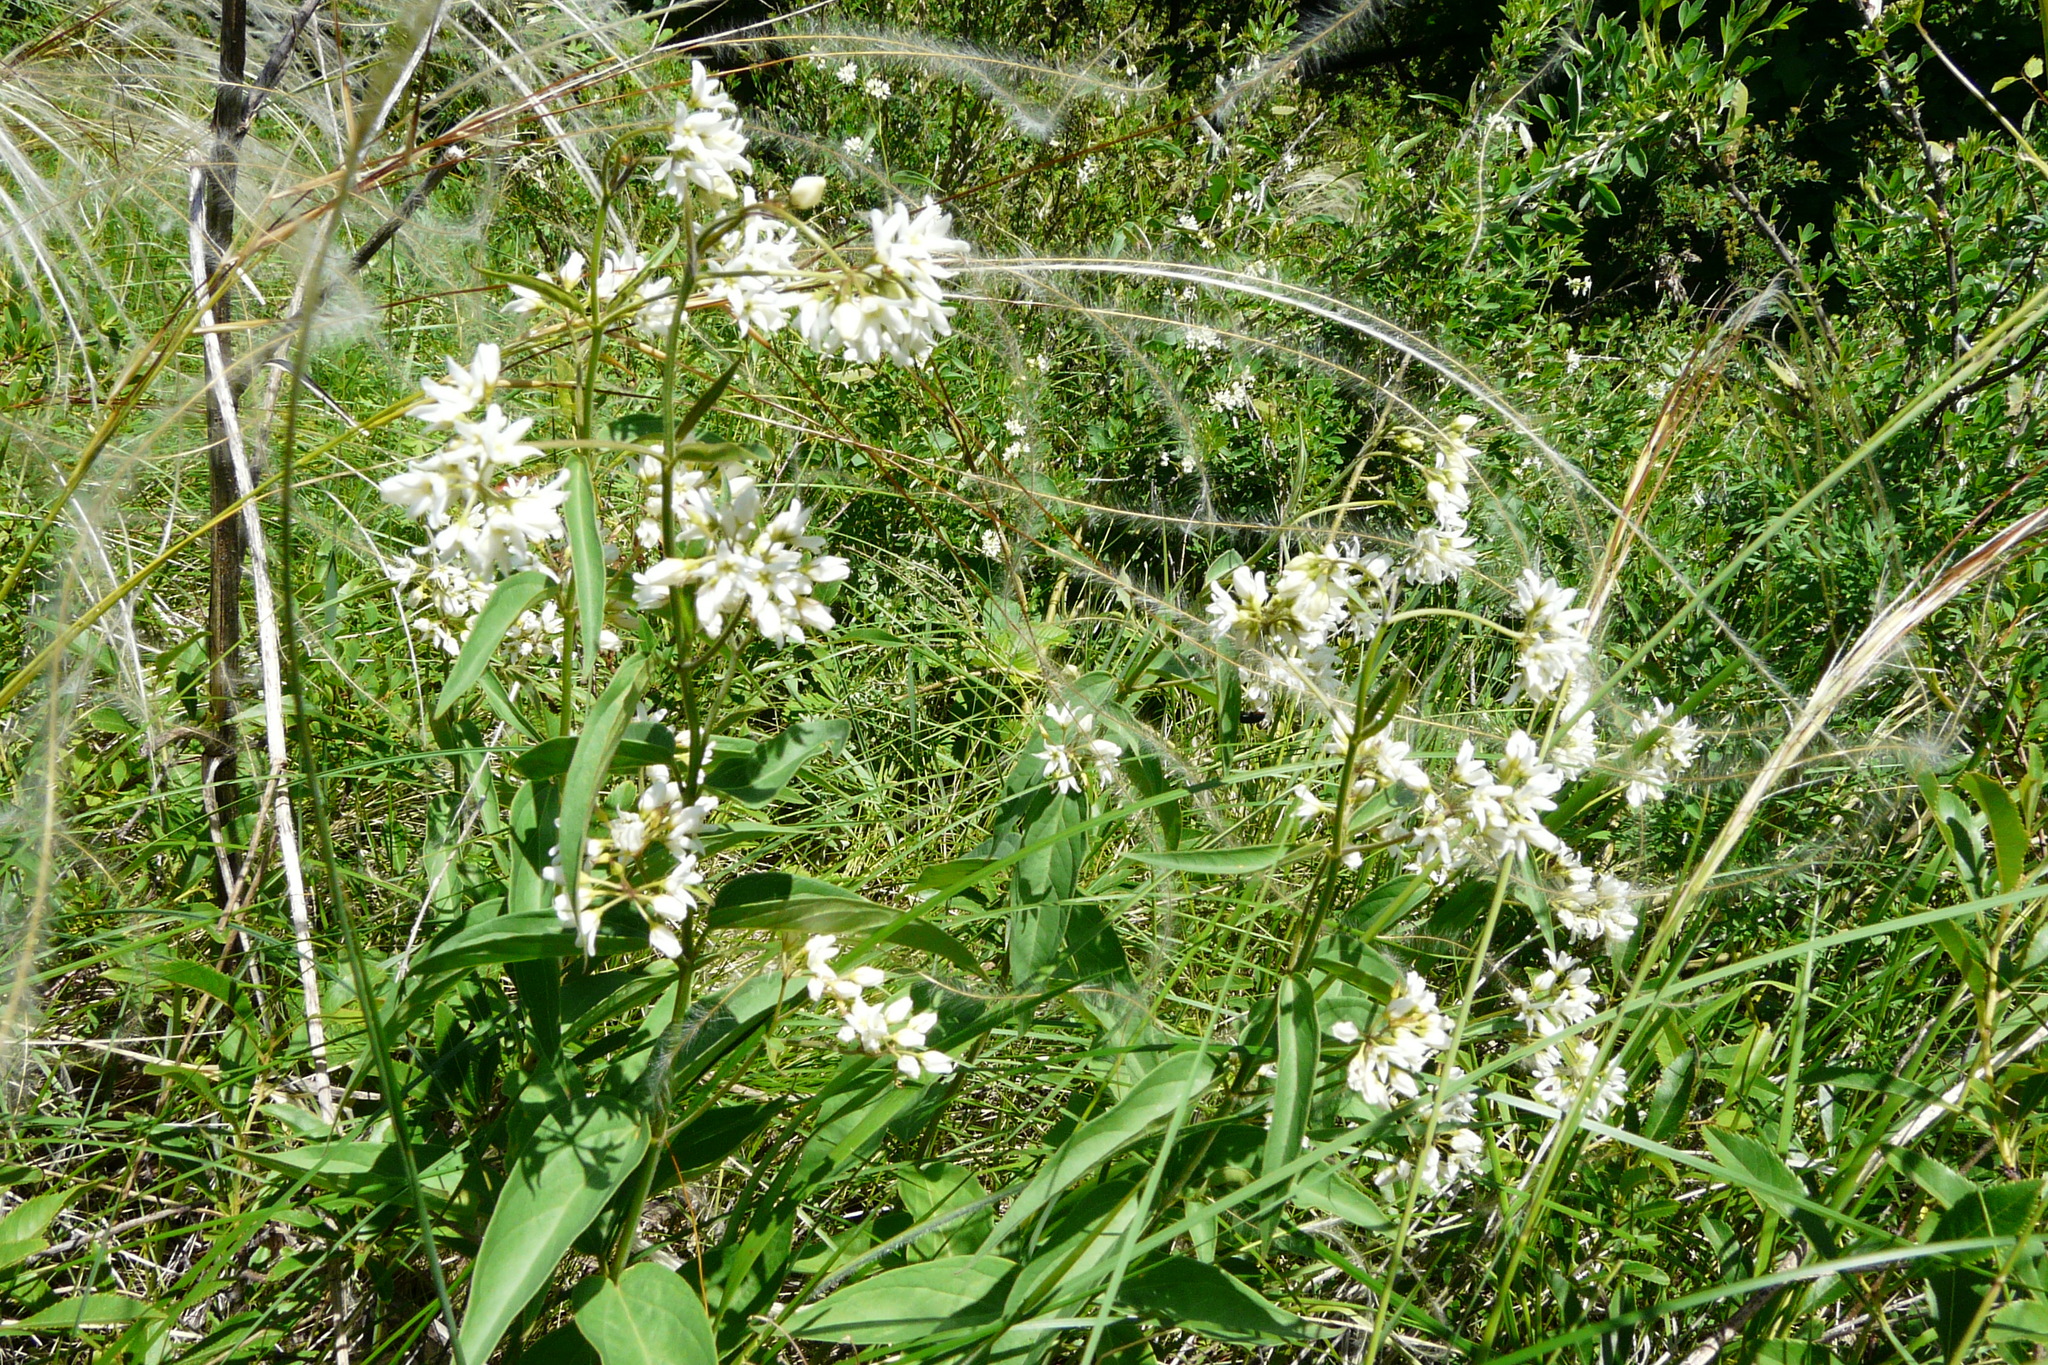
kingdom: Plantae
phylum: Tracheophyta
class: Magnoliopsida
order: Gentianales
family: Apocynaceae
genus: Vincetoxicum
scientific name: Vincetoxicum hirundinaria
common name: White swallowwort
